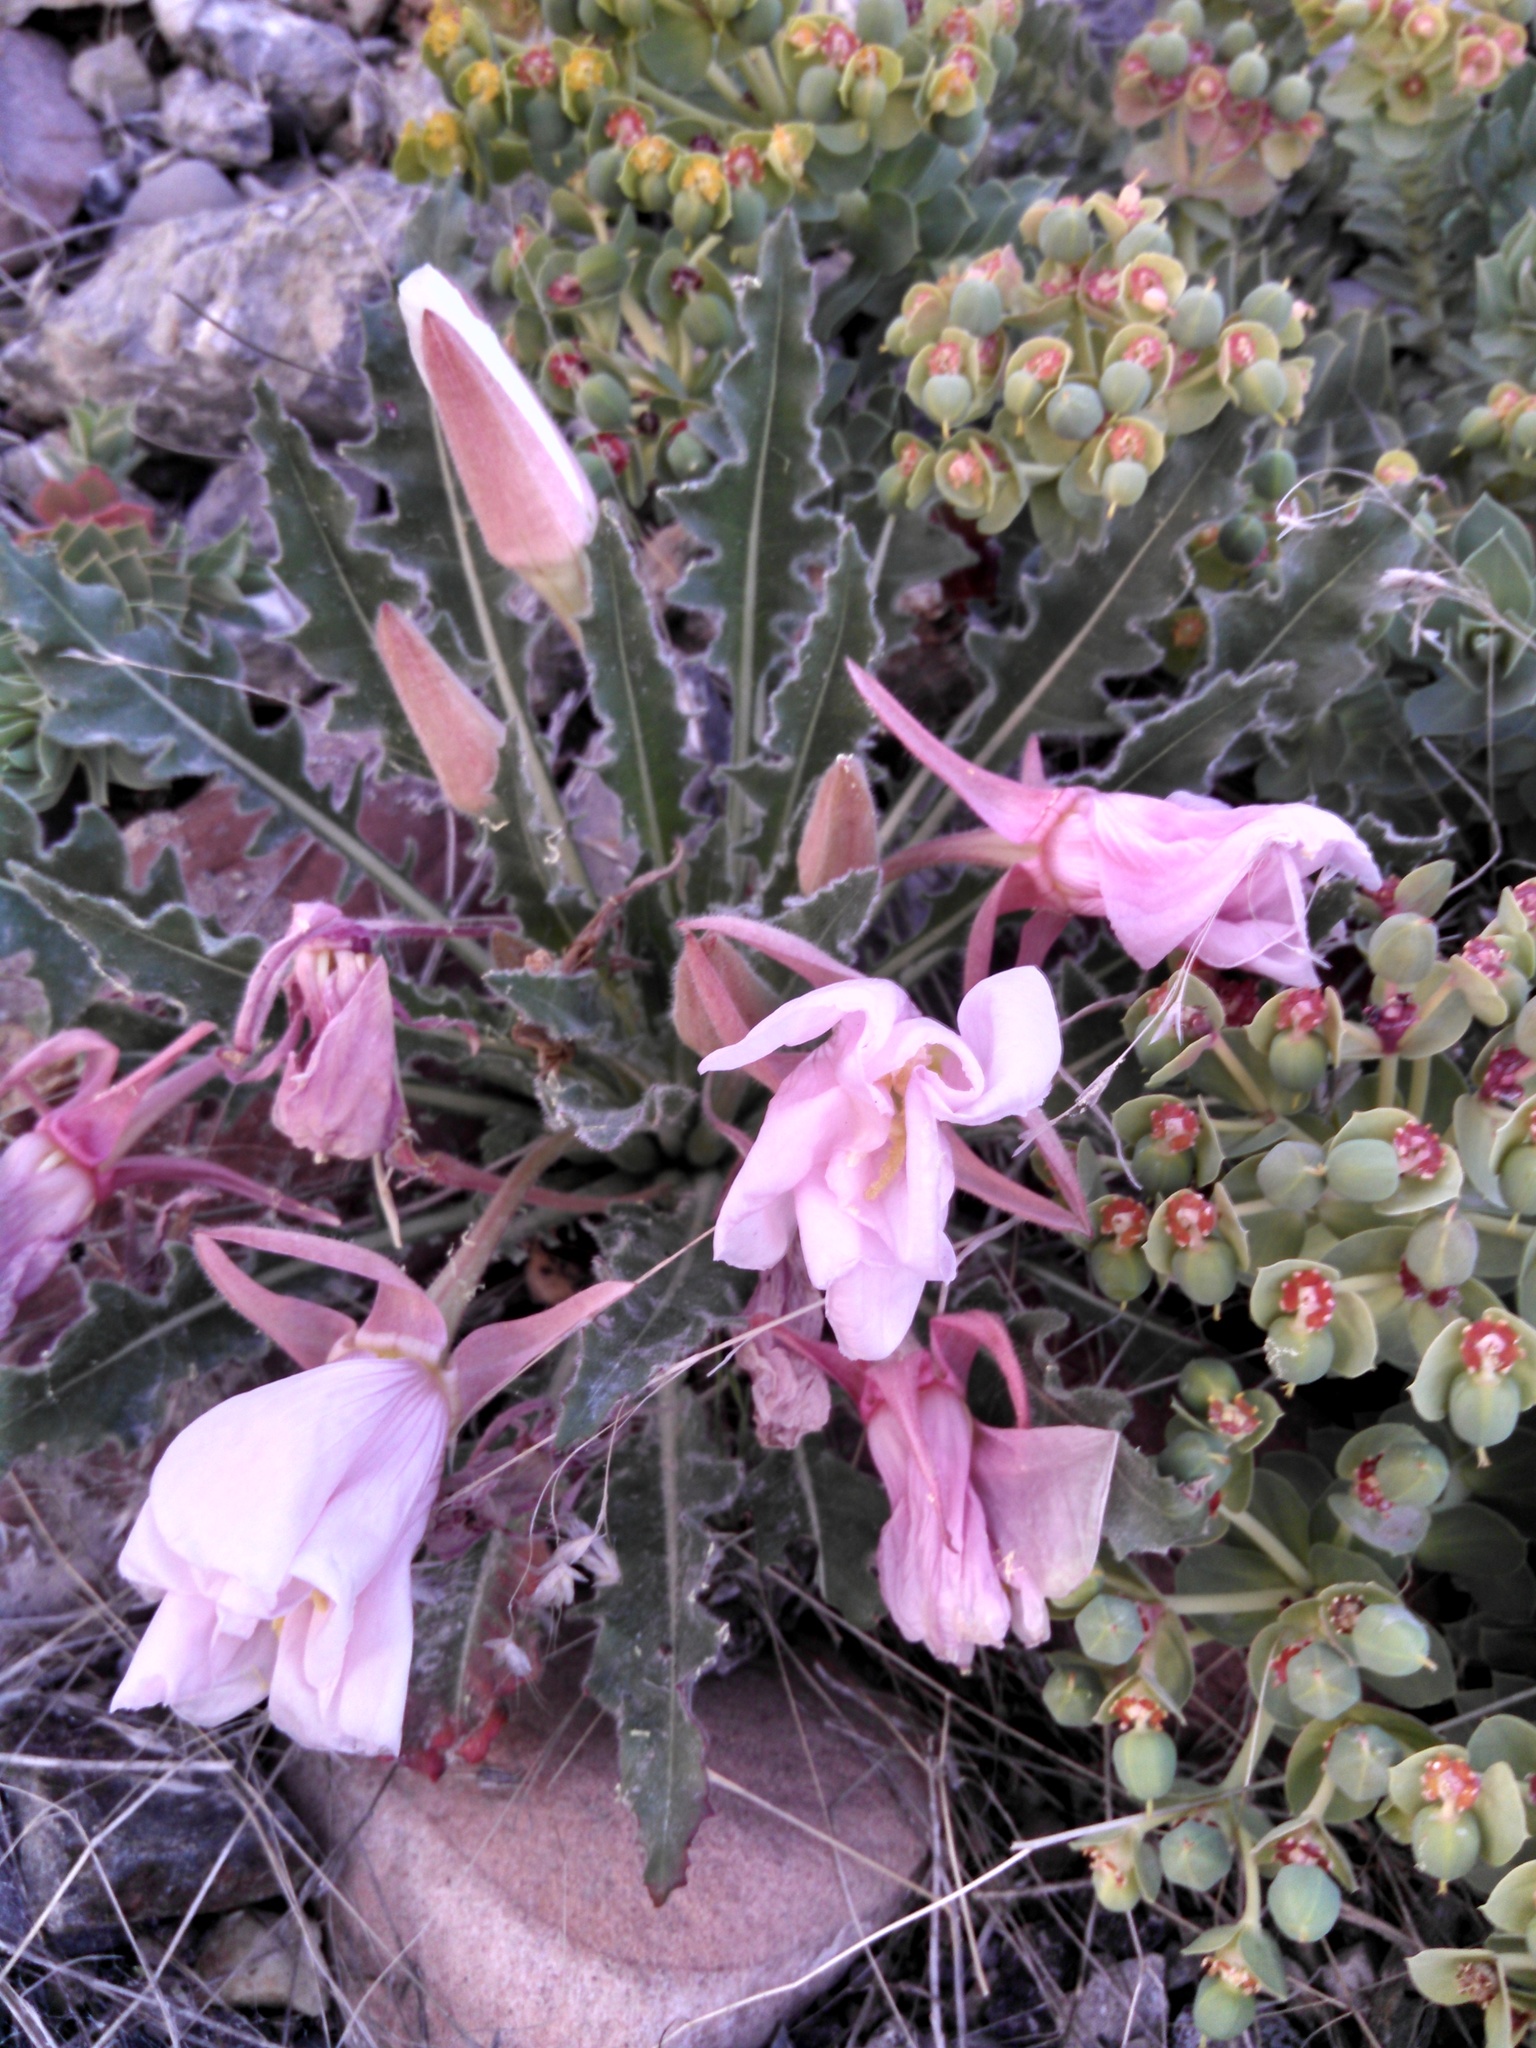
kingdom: Plantae
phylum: Tracheophyta
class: Magnoliopsida
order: Myrtales
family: Onagraceae
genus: Oenothera
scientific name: Oenothera cespitosa
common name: Tufted evening-primrose
